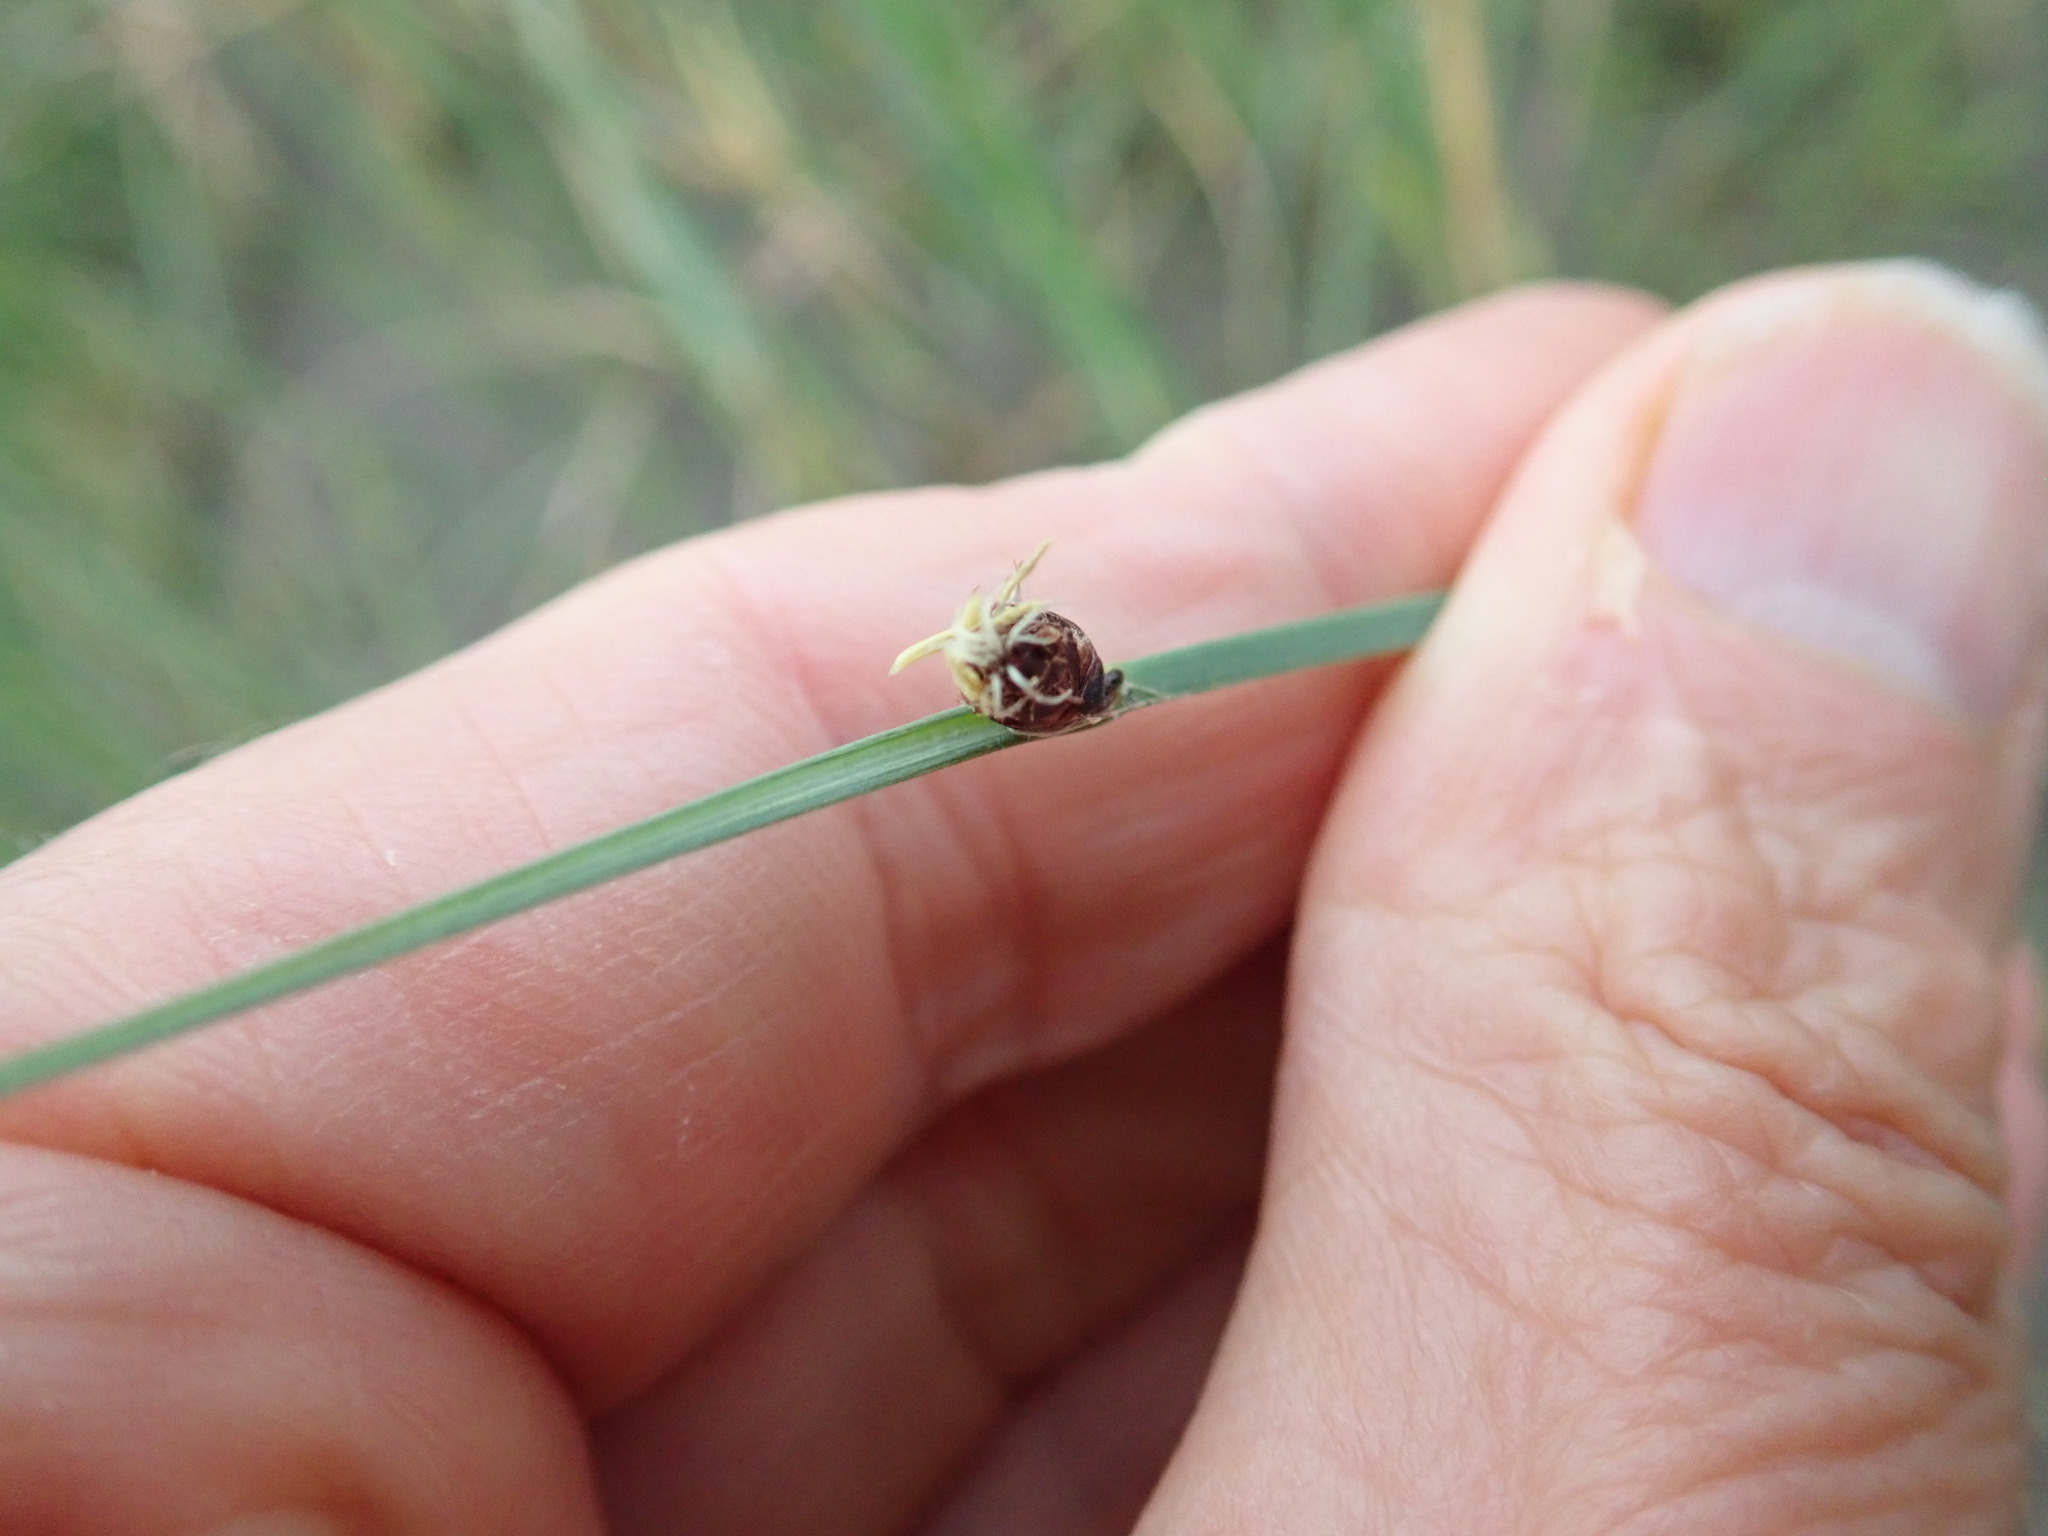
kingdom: Plantae
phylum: Tracheophyta
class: Liliopsida
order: Poales
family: Cyperaceae
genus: Schoenoplectus
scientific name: Schoenoplectus pungens
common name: Sharp club-rush
